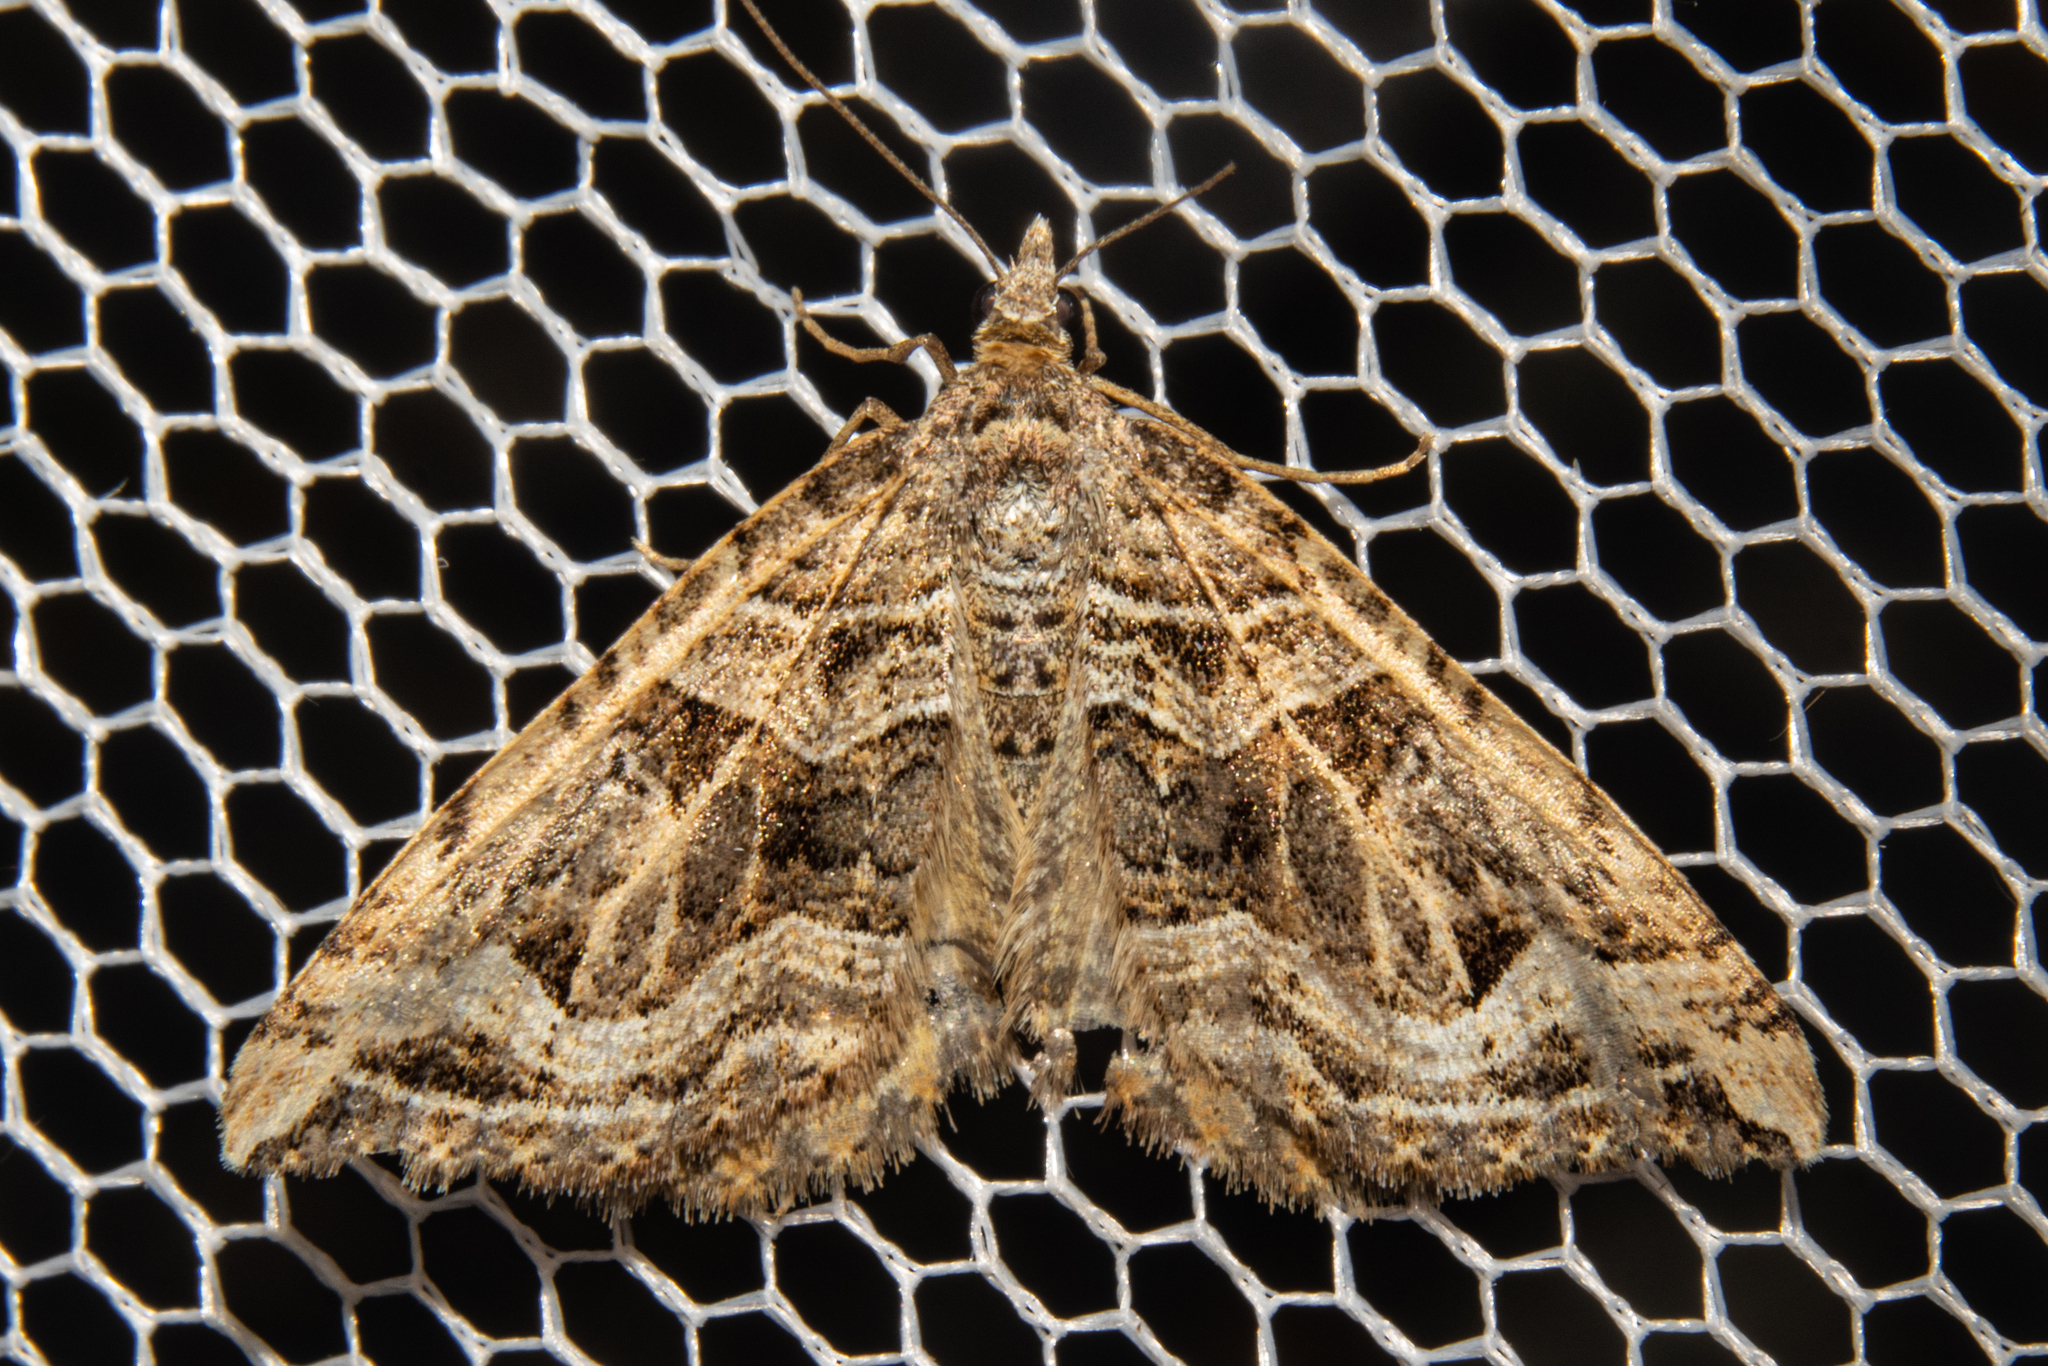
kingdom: Animalia
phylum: Arthropoda
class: Insecta
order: Lepidoptera
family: Geometridae
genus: Xanthorhoe
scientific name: Xanthorhoe semifissata
